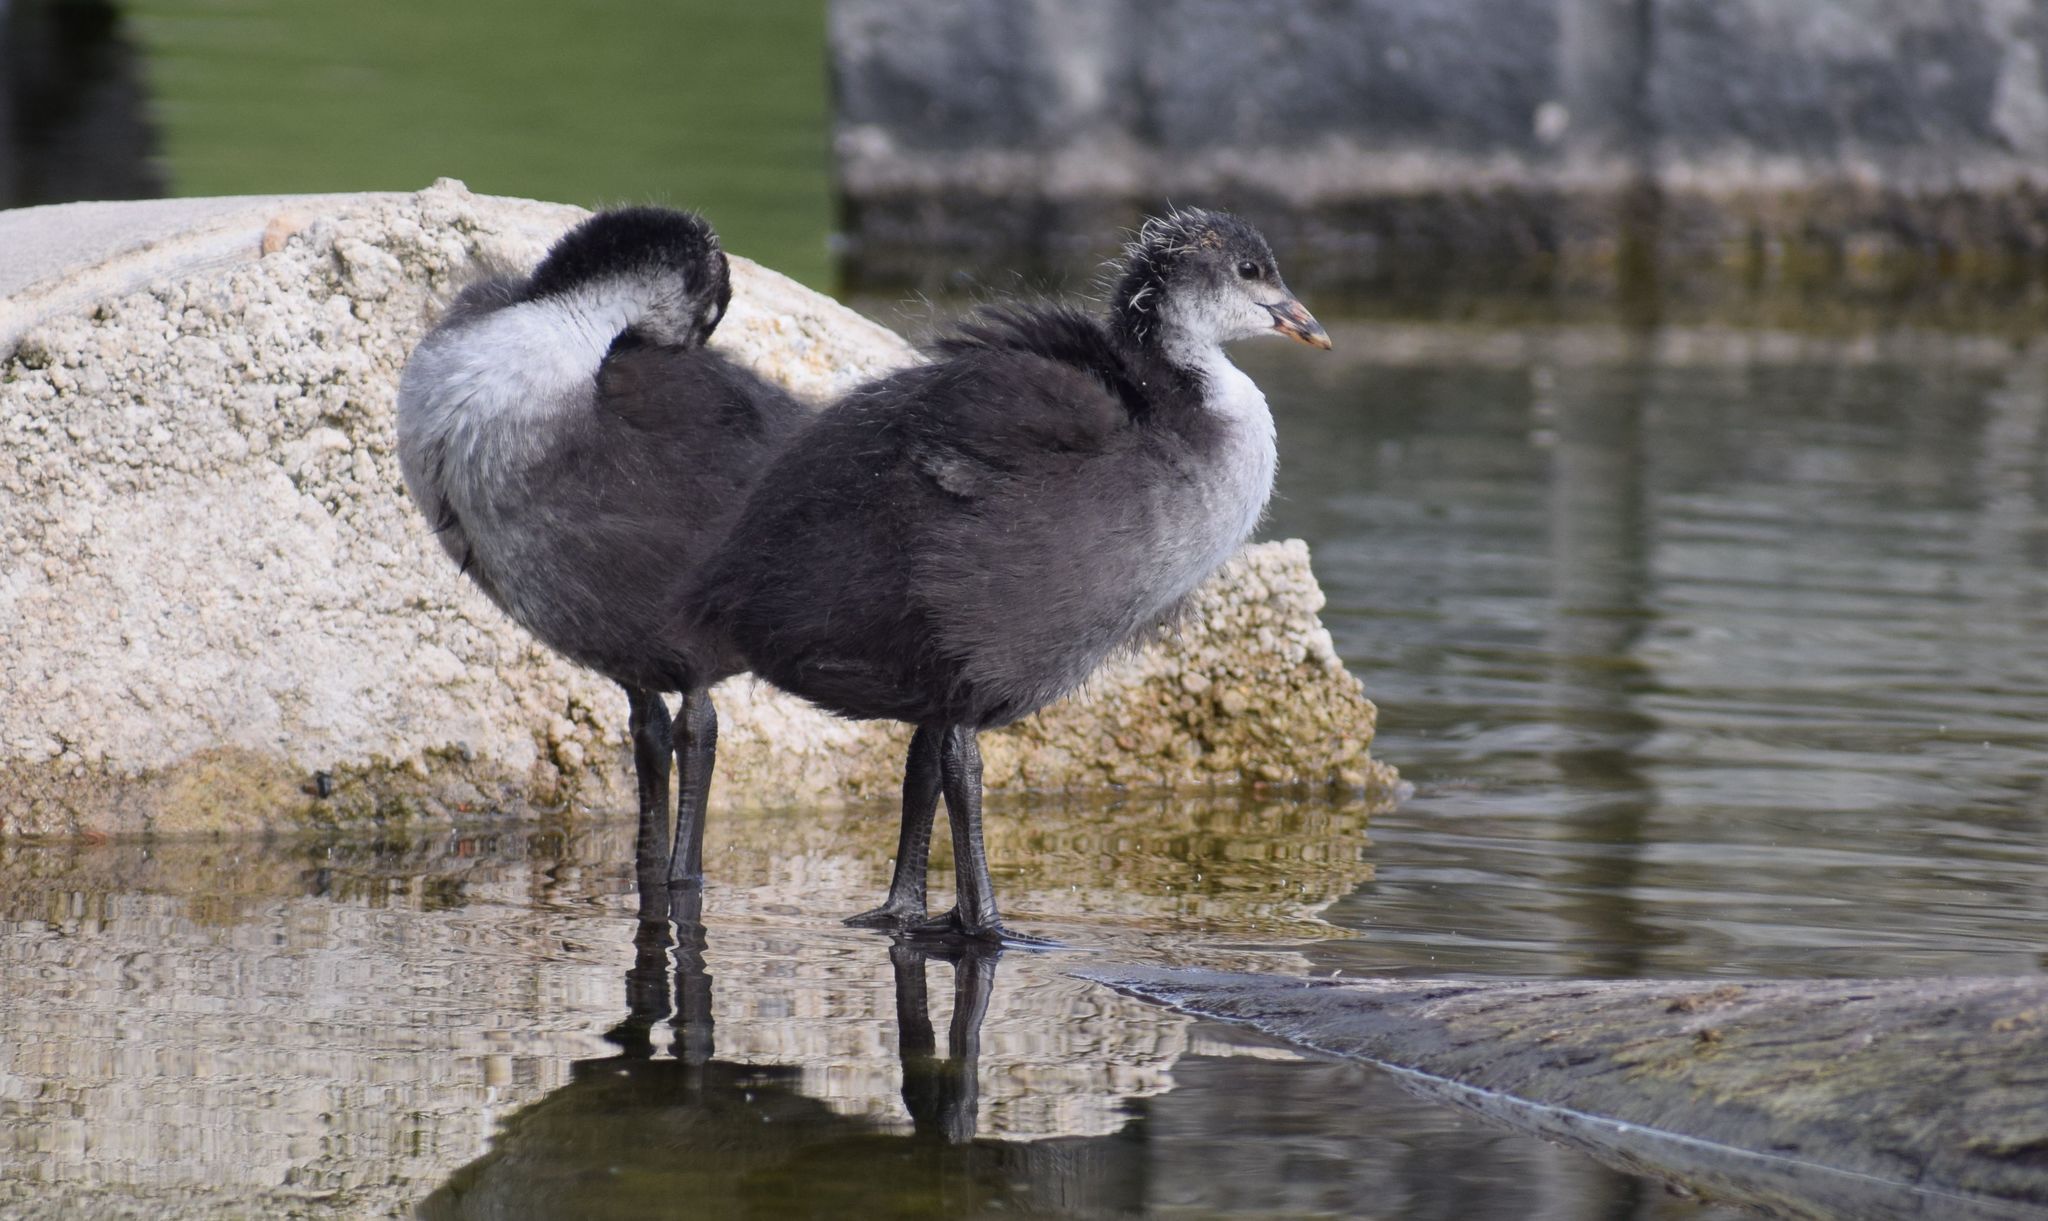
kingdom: Animalia
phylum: Chordata
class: Aves
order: Gruiformes
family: Rallidae
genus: Fulica
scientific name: Fulica atra
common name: Eurasian coot
